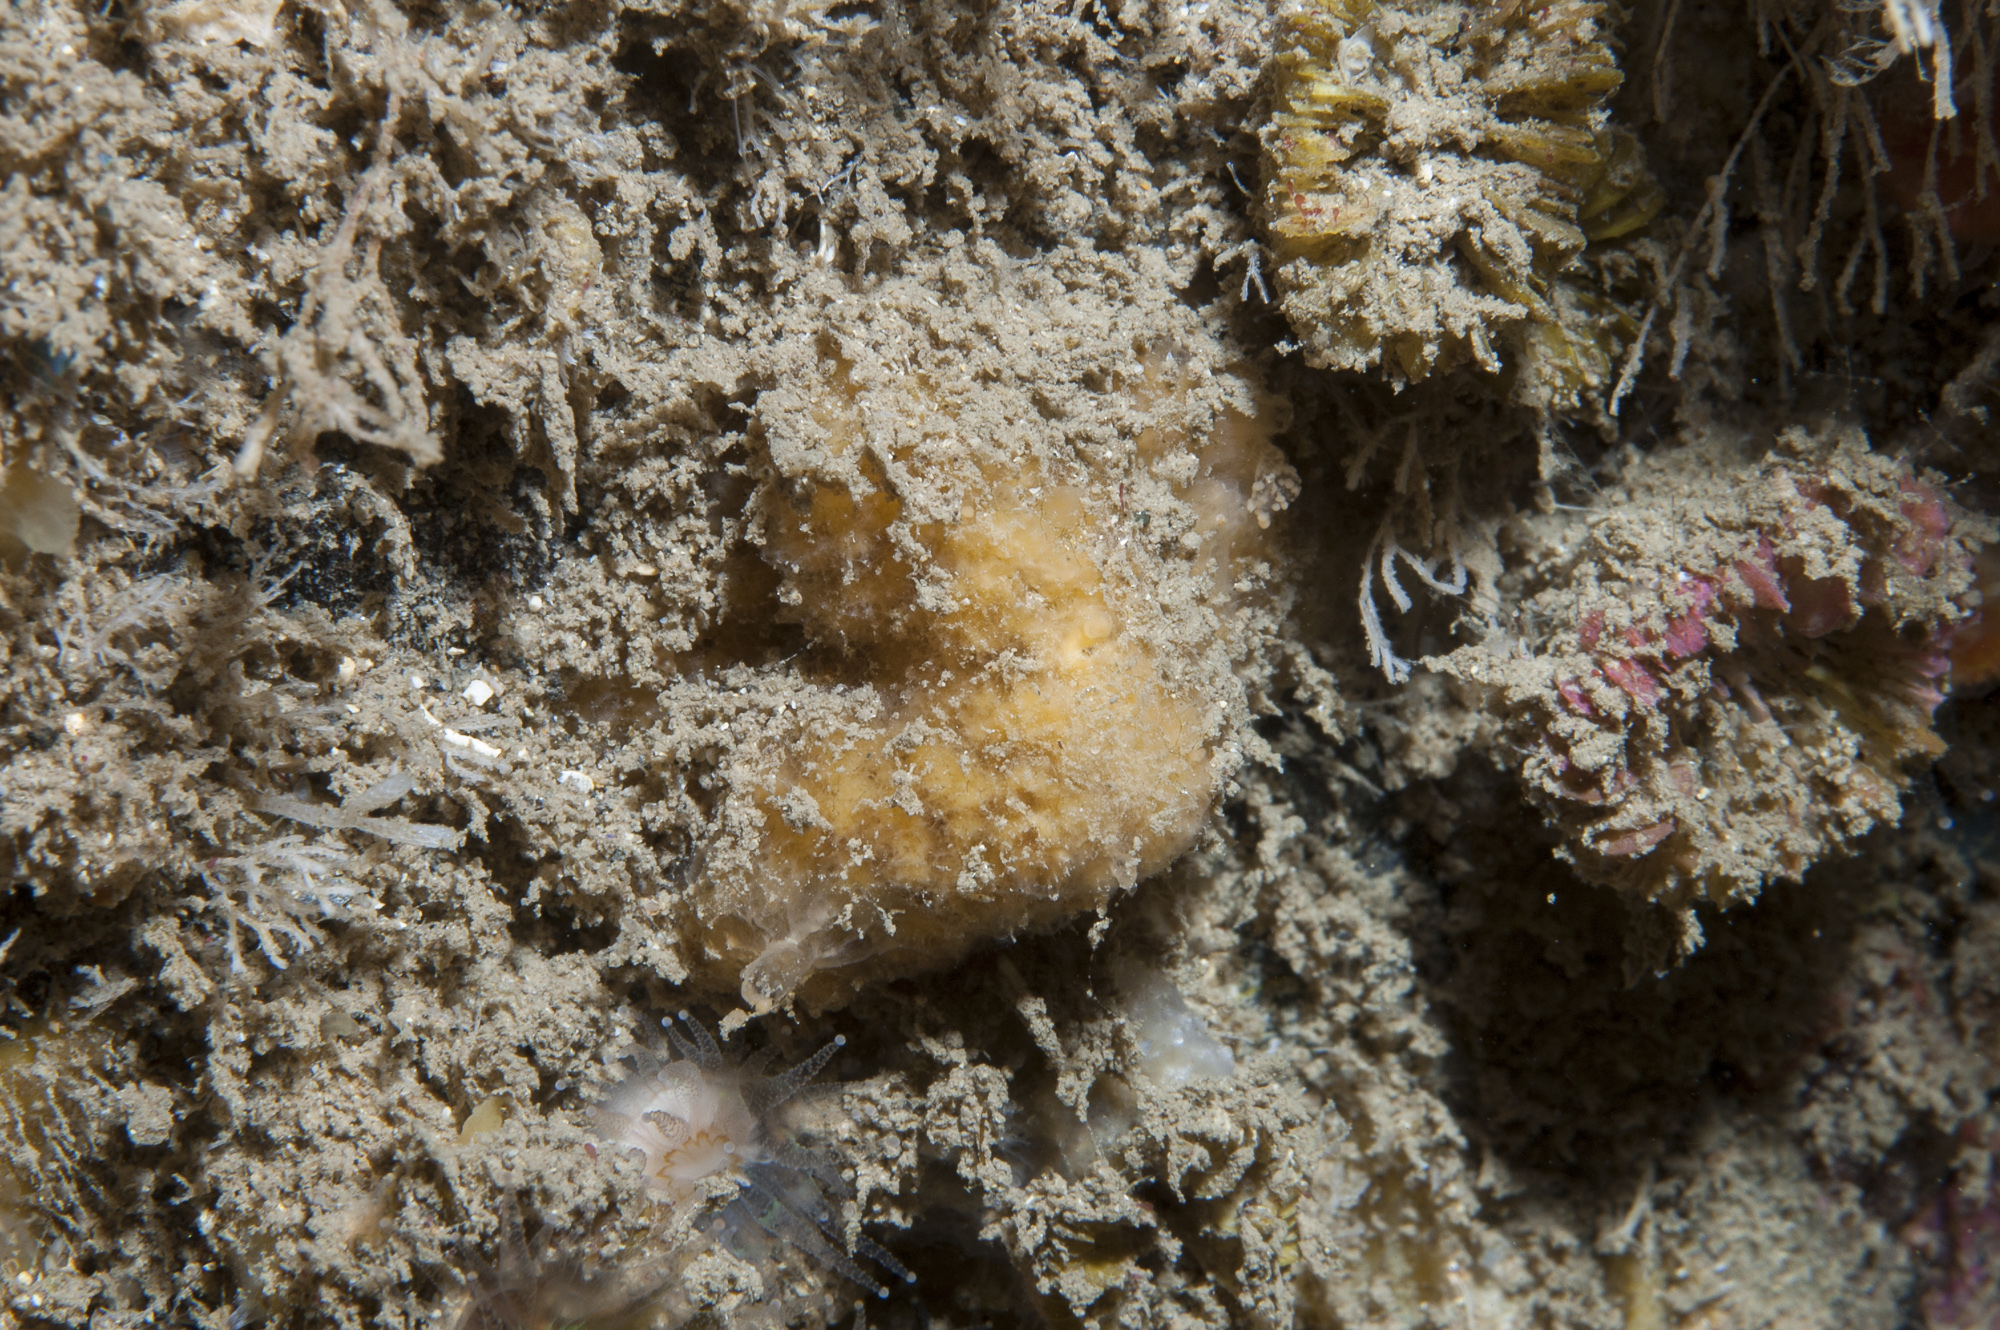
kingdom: Animalia
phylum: Porifera
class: Demospongiae
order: Axinellida
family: Axinellidae
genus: Axinella
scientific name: Axinella parva
